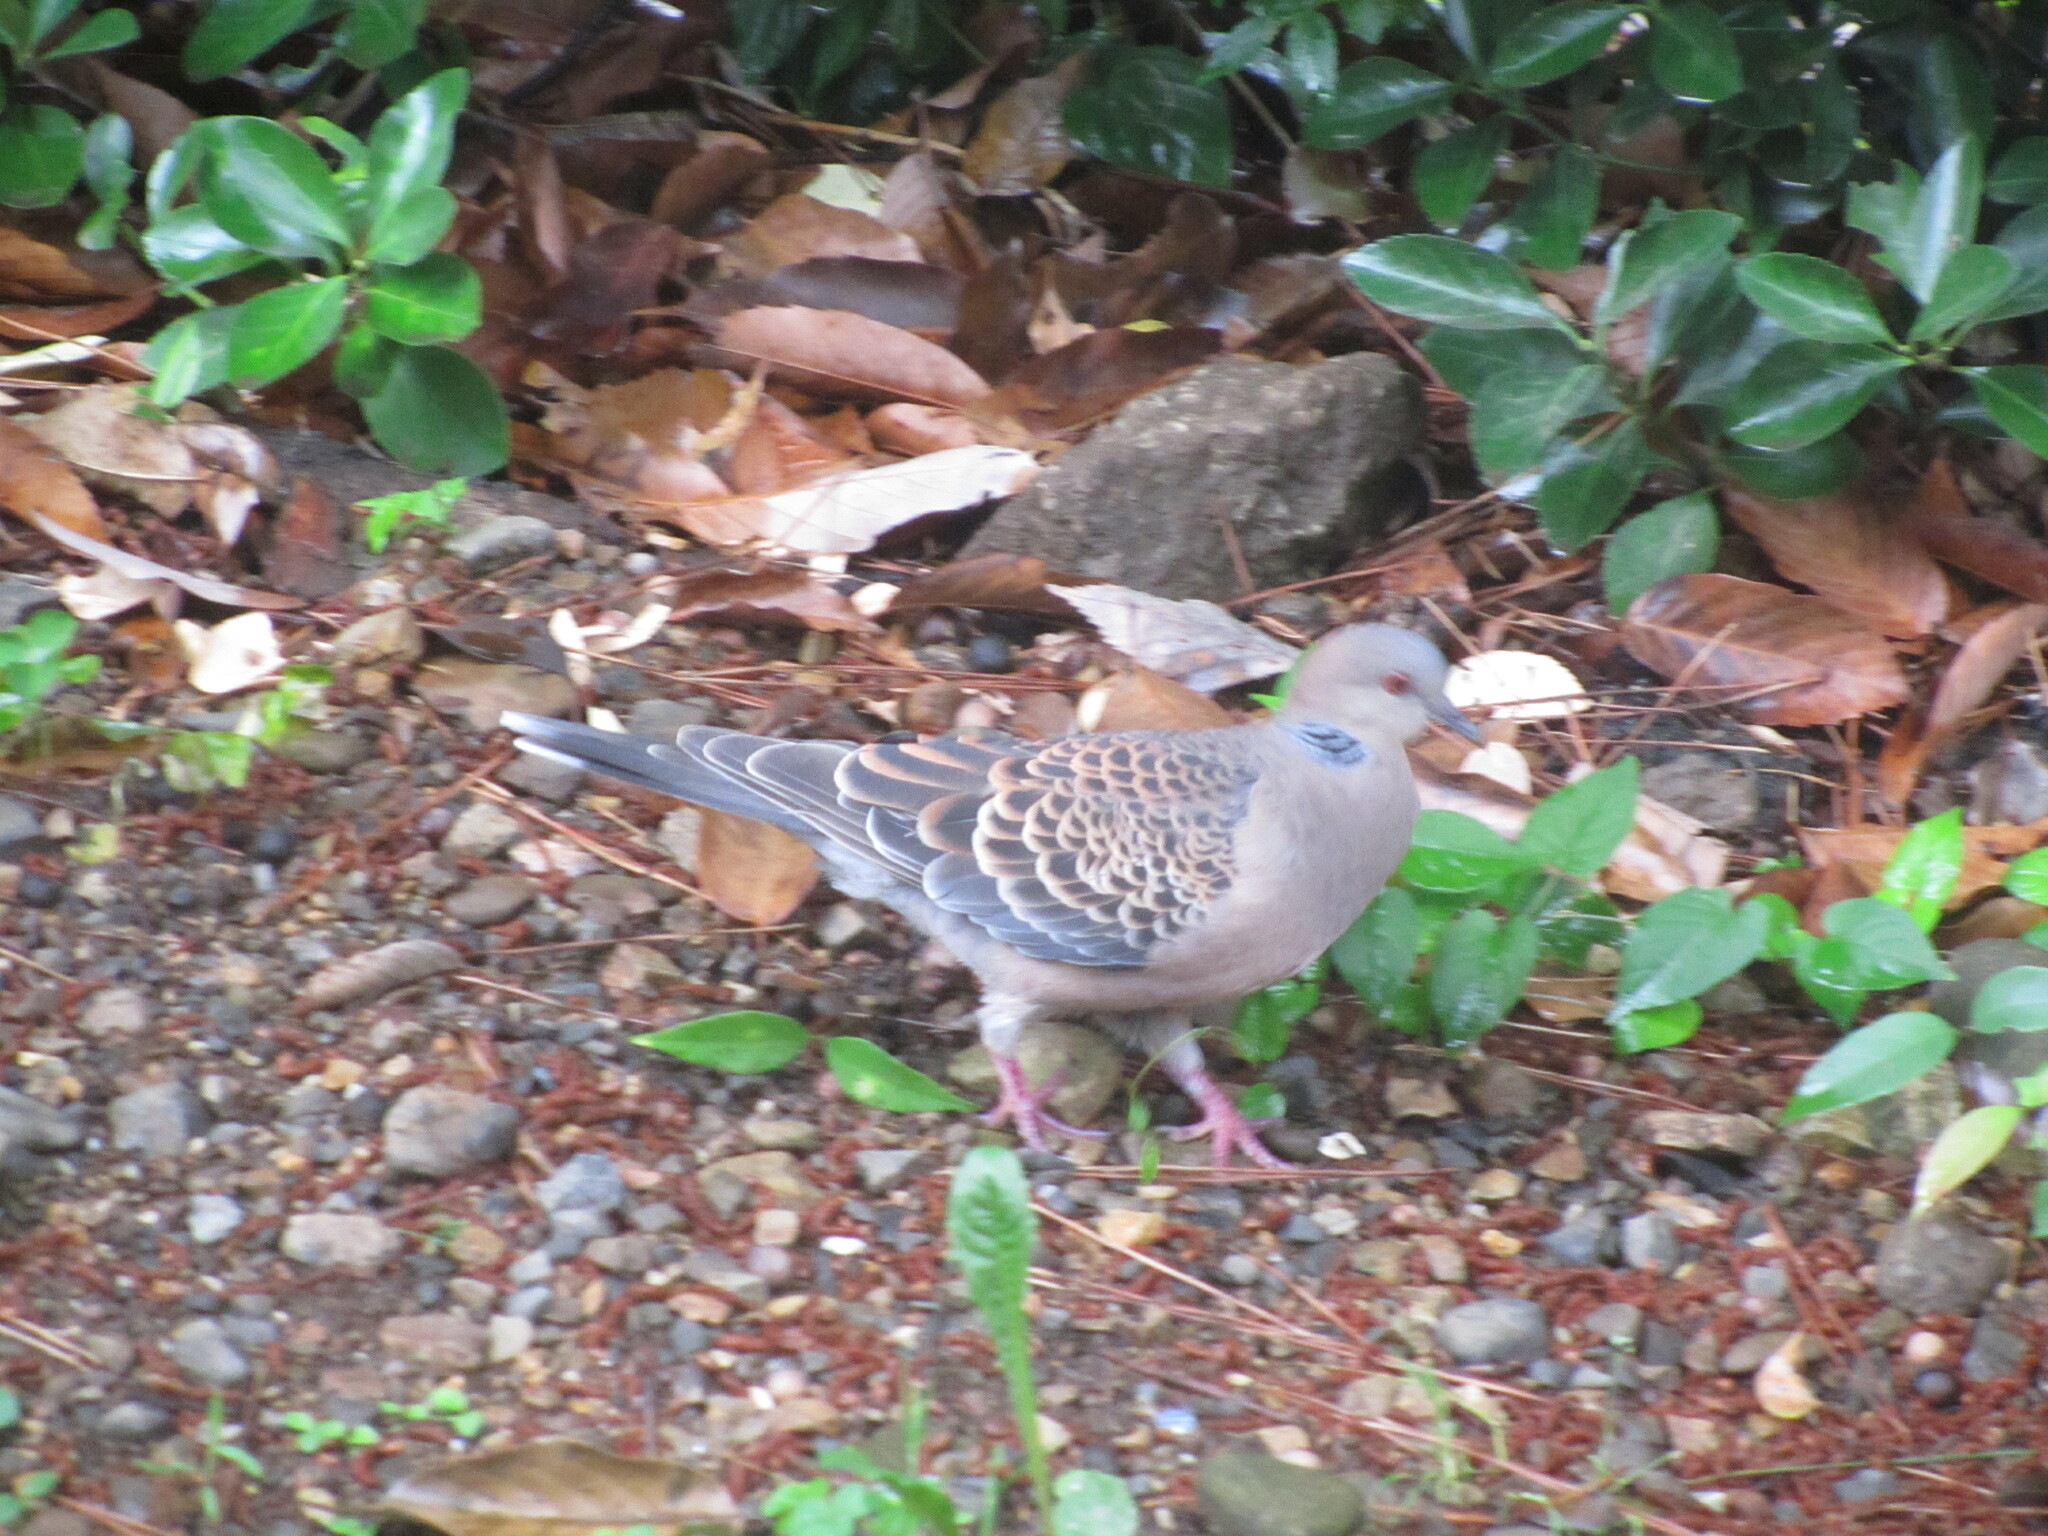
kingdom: Animalia
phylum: Chordata
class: Aves
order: Columbiformes
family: Columbidae
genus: Streptopelia
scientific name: Streptopelia orientalis
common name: Oriental turtle dove
